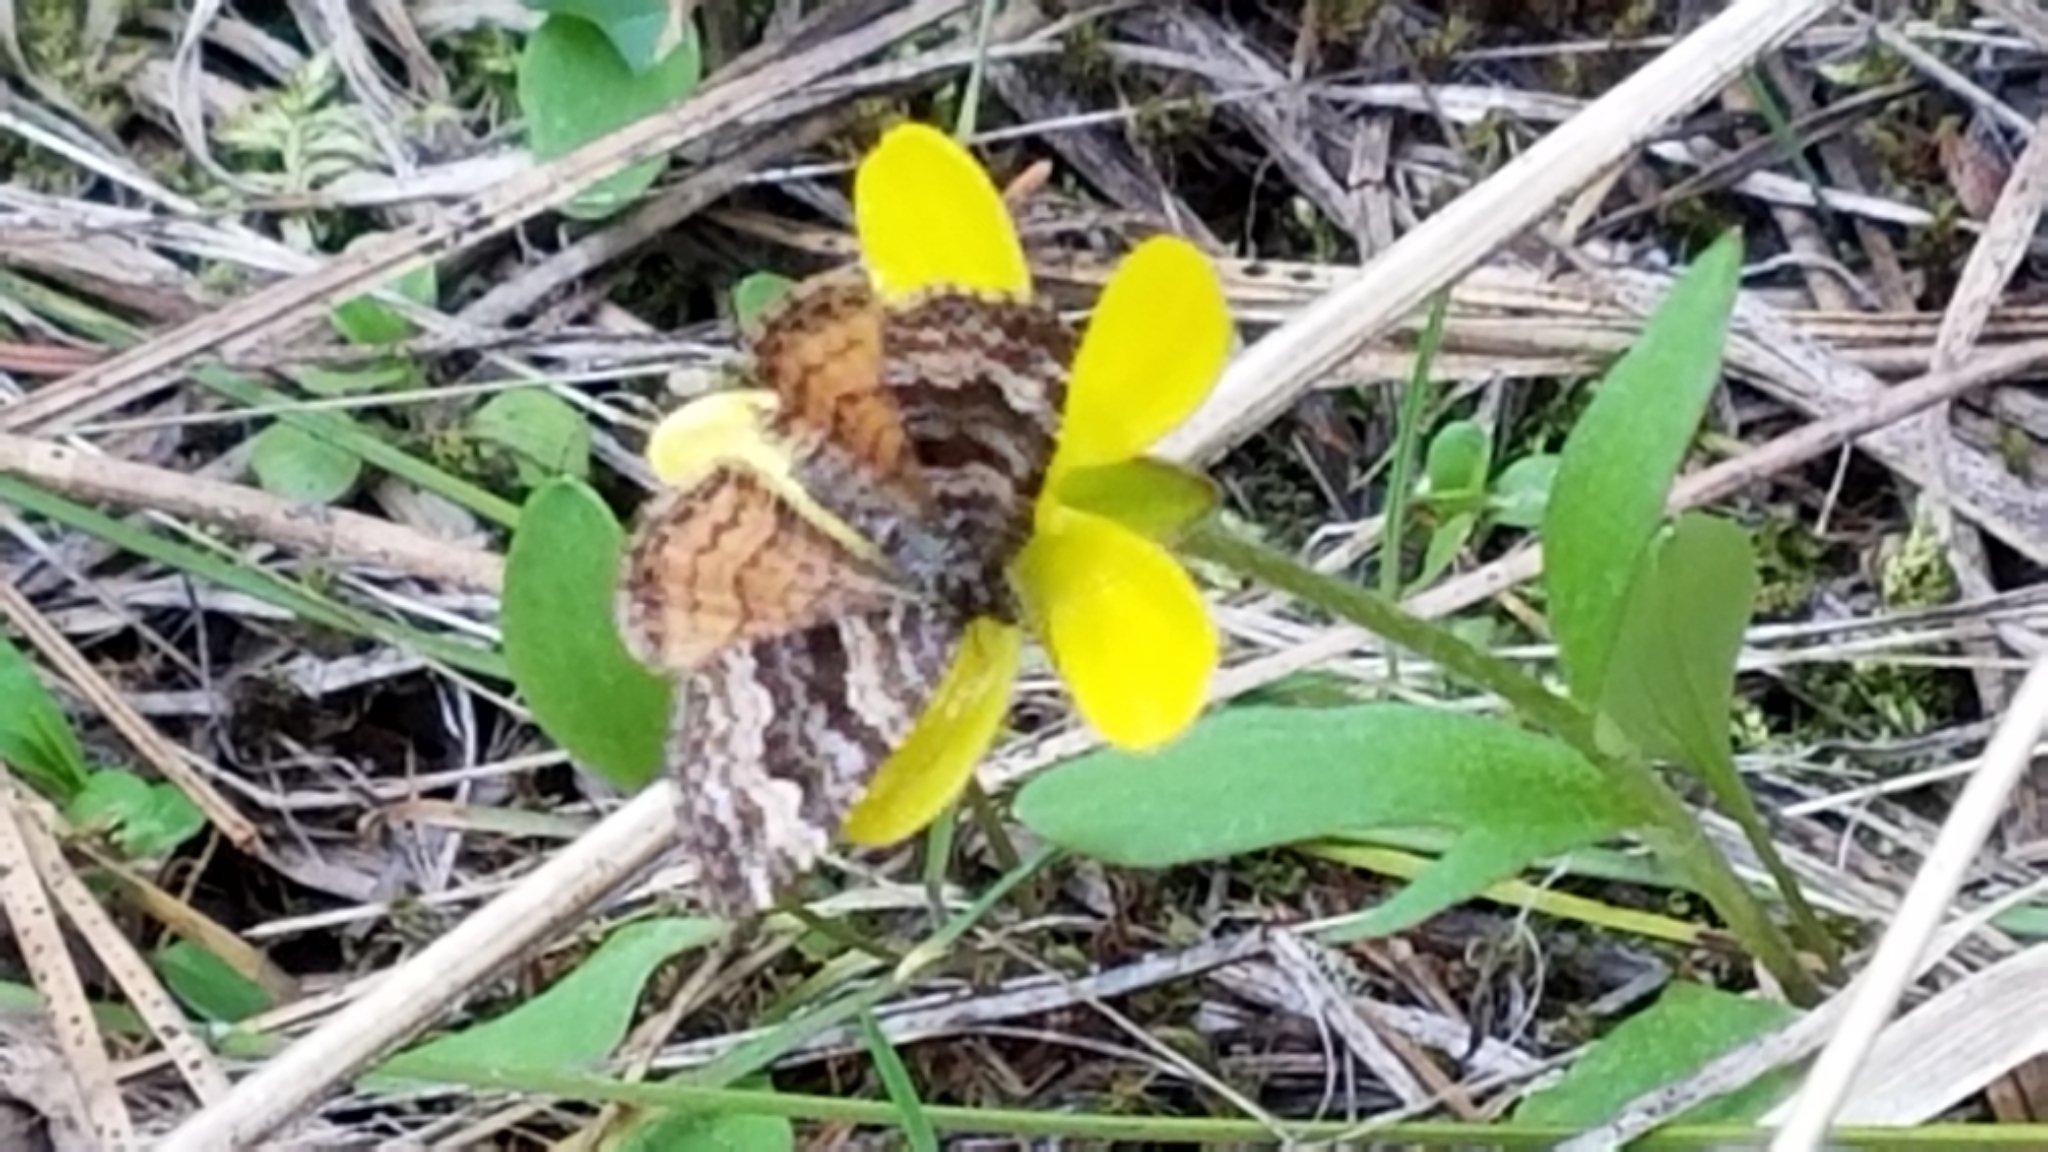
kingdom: Animalia
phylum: Arthropoda
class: Insecta
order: Lepidoptera
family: Geometridae
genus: Epirrhoe
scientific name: Epirrhoe plebeculata
